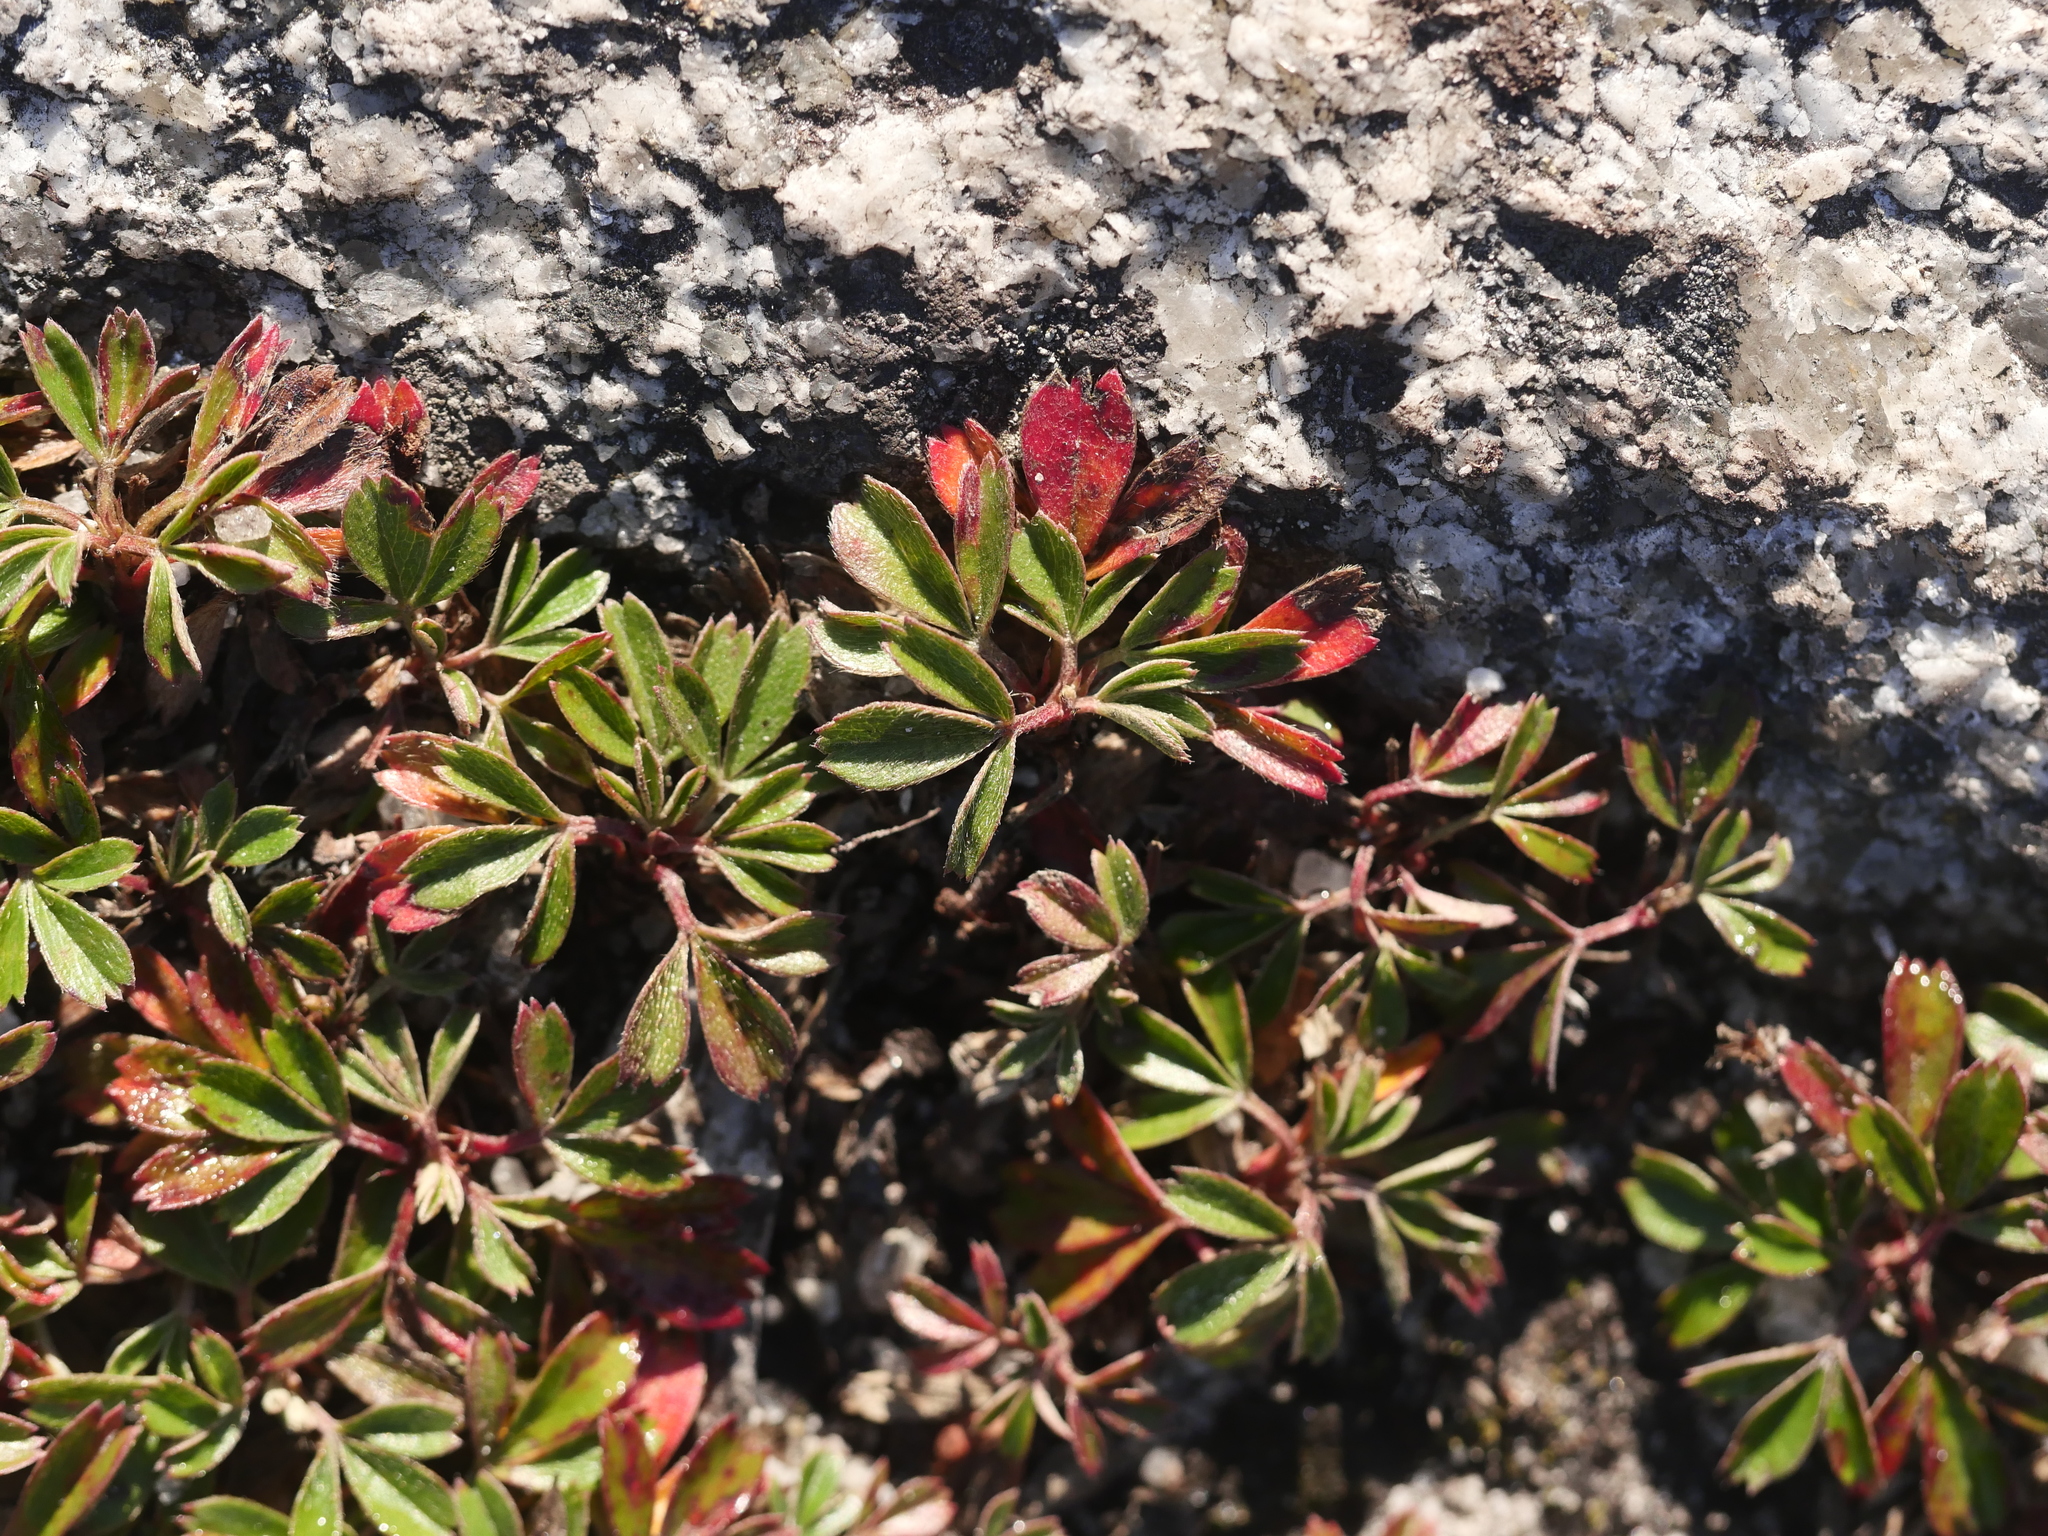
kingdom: Plantae
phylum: Tracheophyta
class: Magnoliopsida
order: Rosales
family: Rosaceae
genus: Sibbaldia
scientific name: Sibbaldia tridentata
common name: Three-toothed cinquefoil
